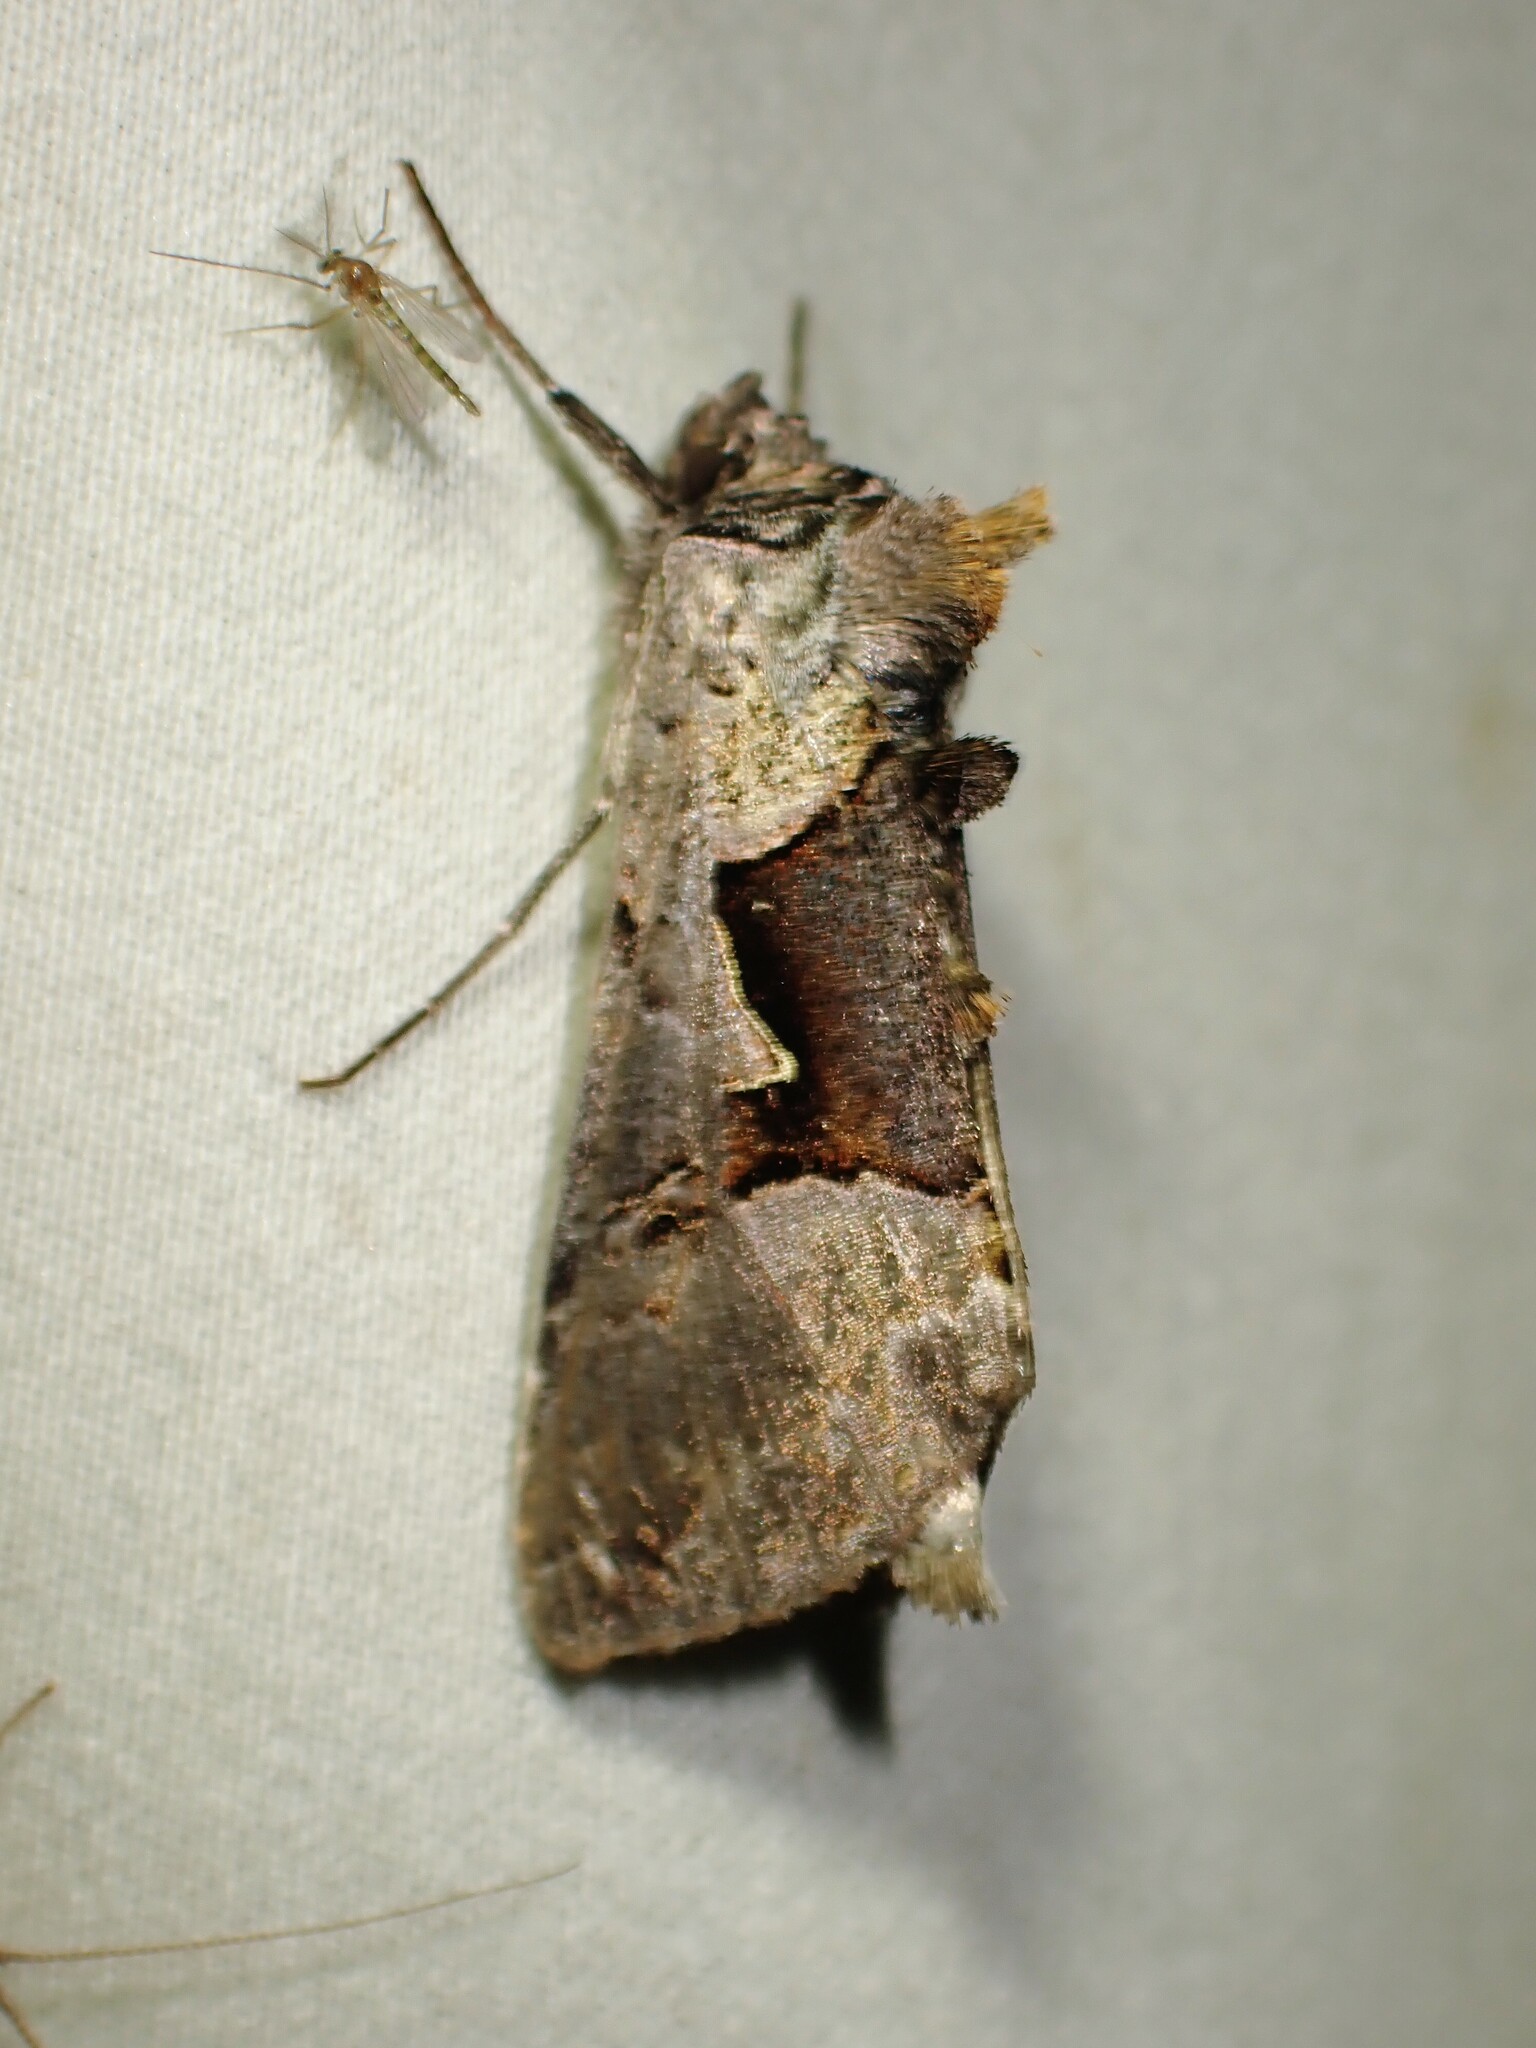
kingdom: Animalia
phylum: Arthropoda
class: Insecta
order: Lepidoptera
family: Noctuidae
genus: Autographa
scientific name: Autographa ampla
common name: Large looper moth
